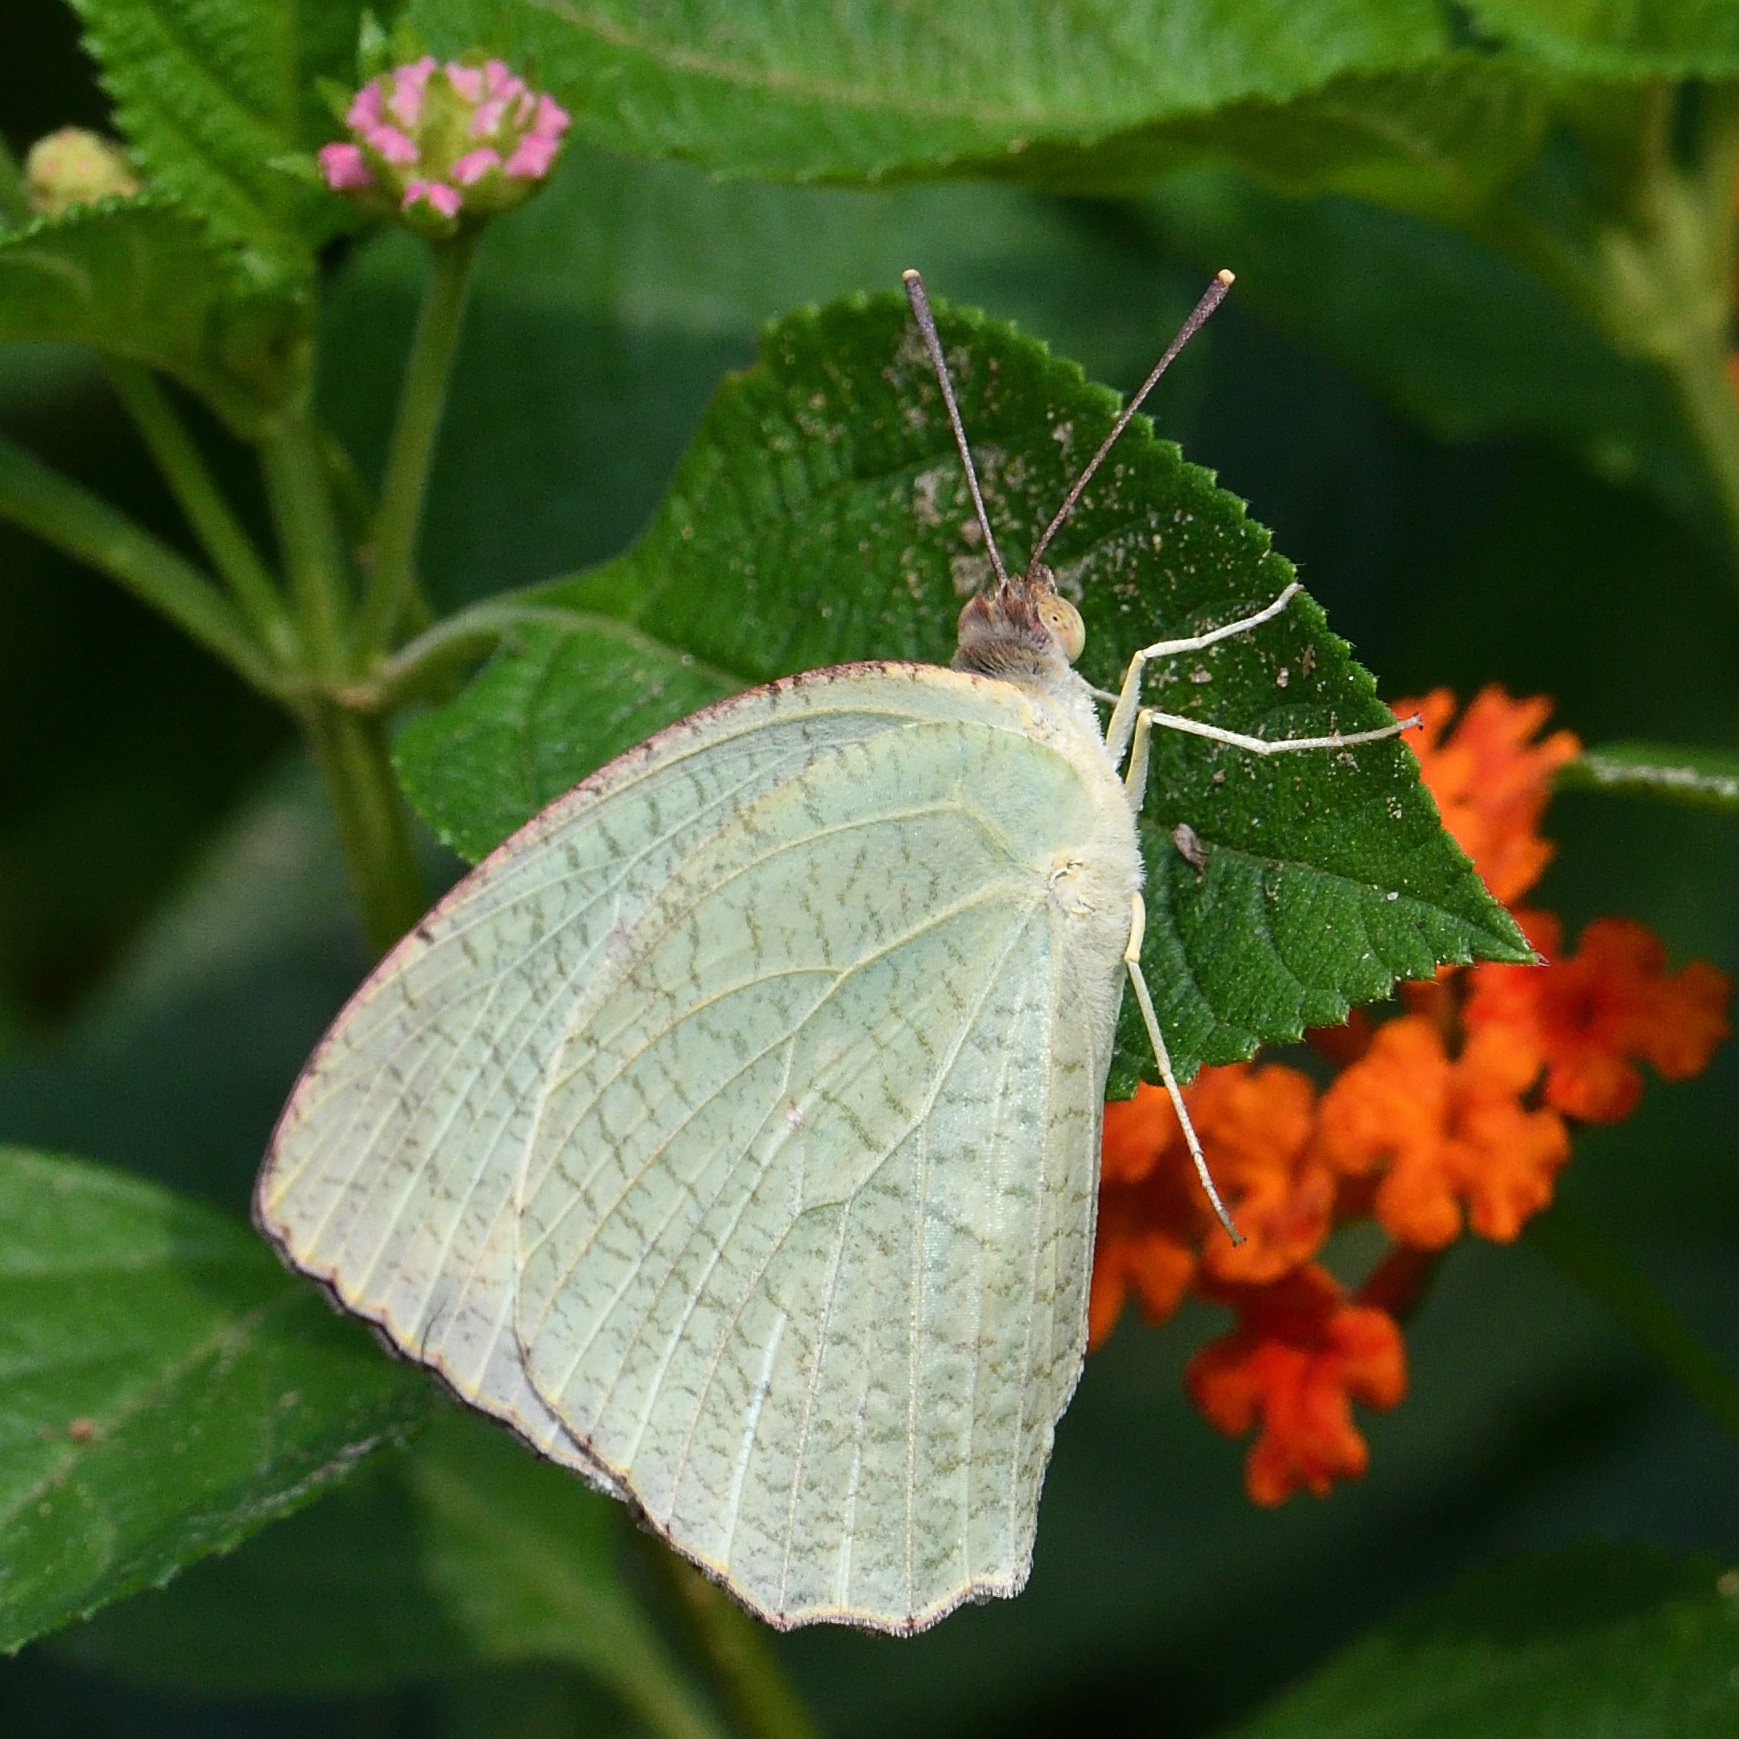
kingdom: Animalia
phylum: Arthropoda
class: Insecta
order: Lepidoptera
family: Pieridae
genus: Catopsilia
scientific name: Catopsilia pyranthe
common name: Mottled emigrant
